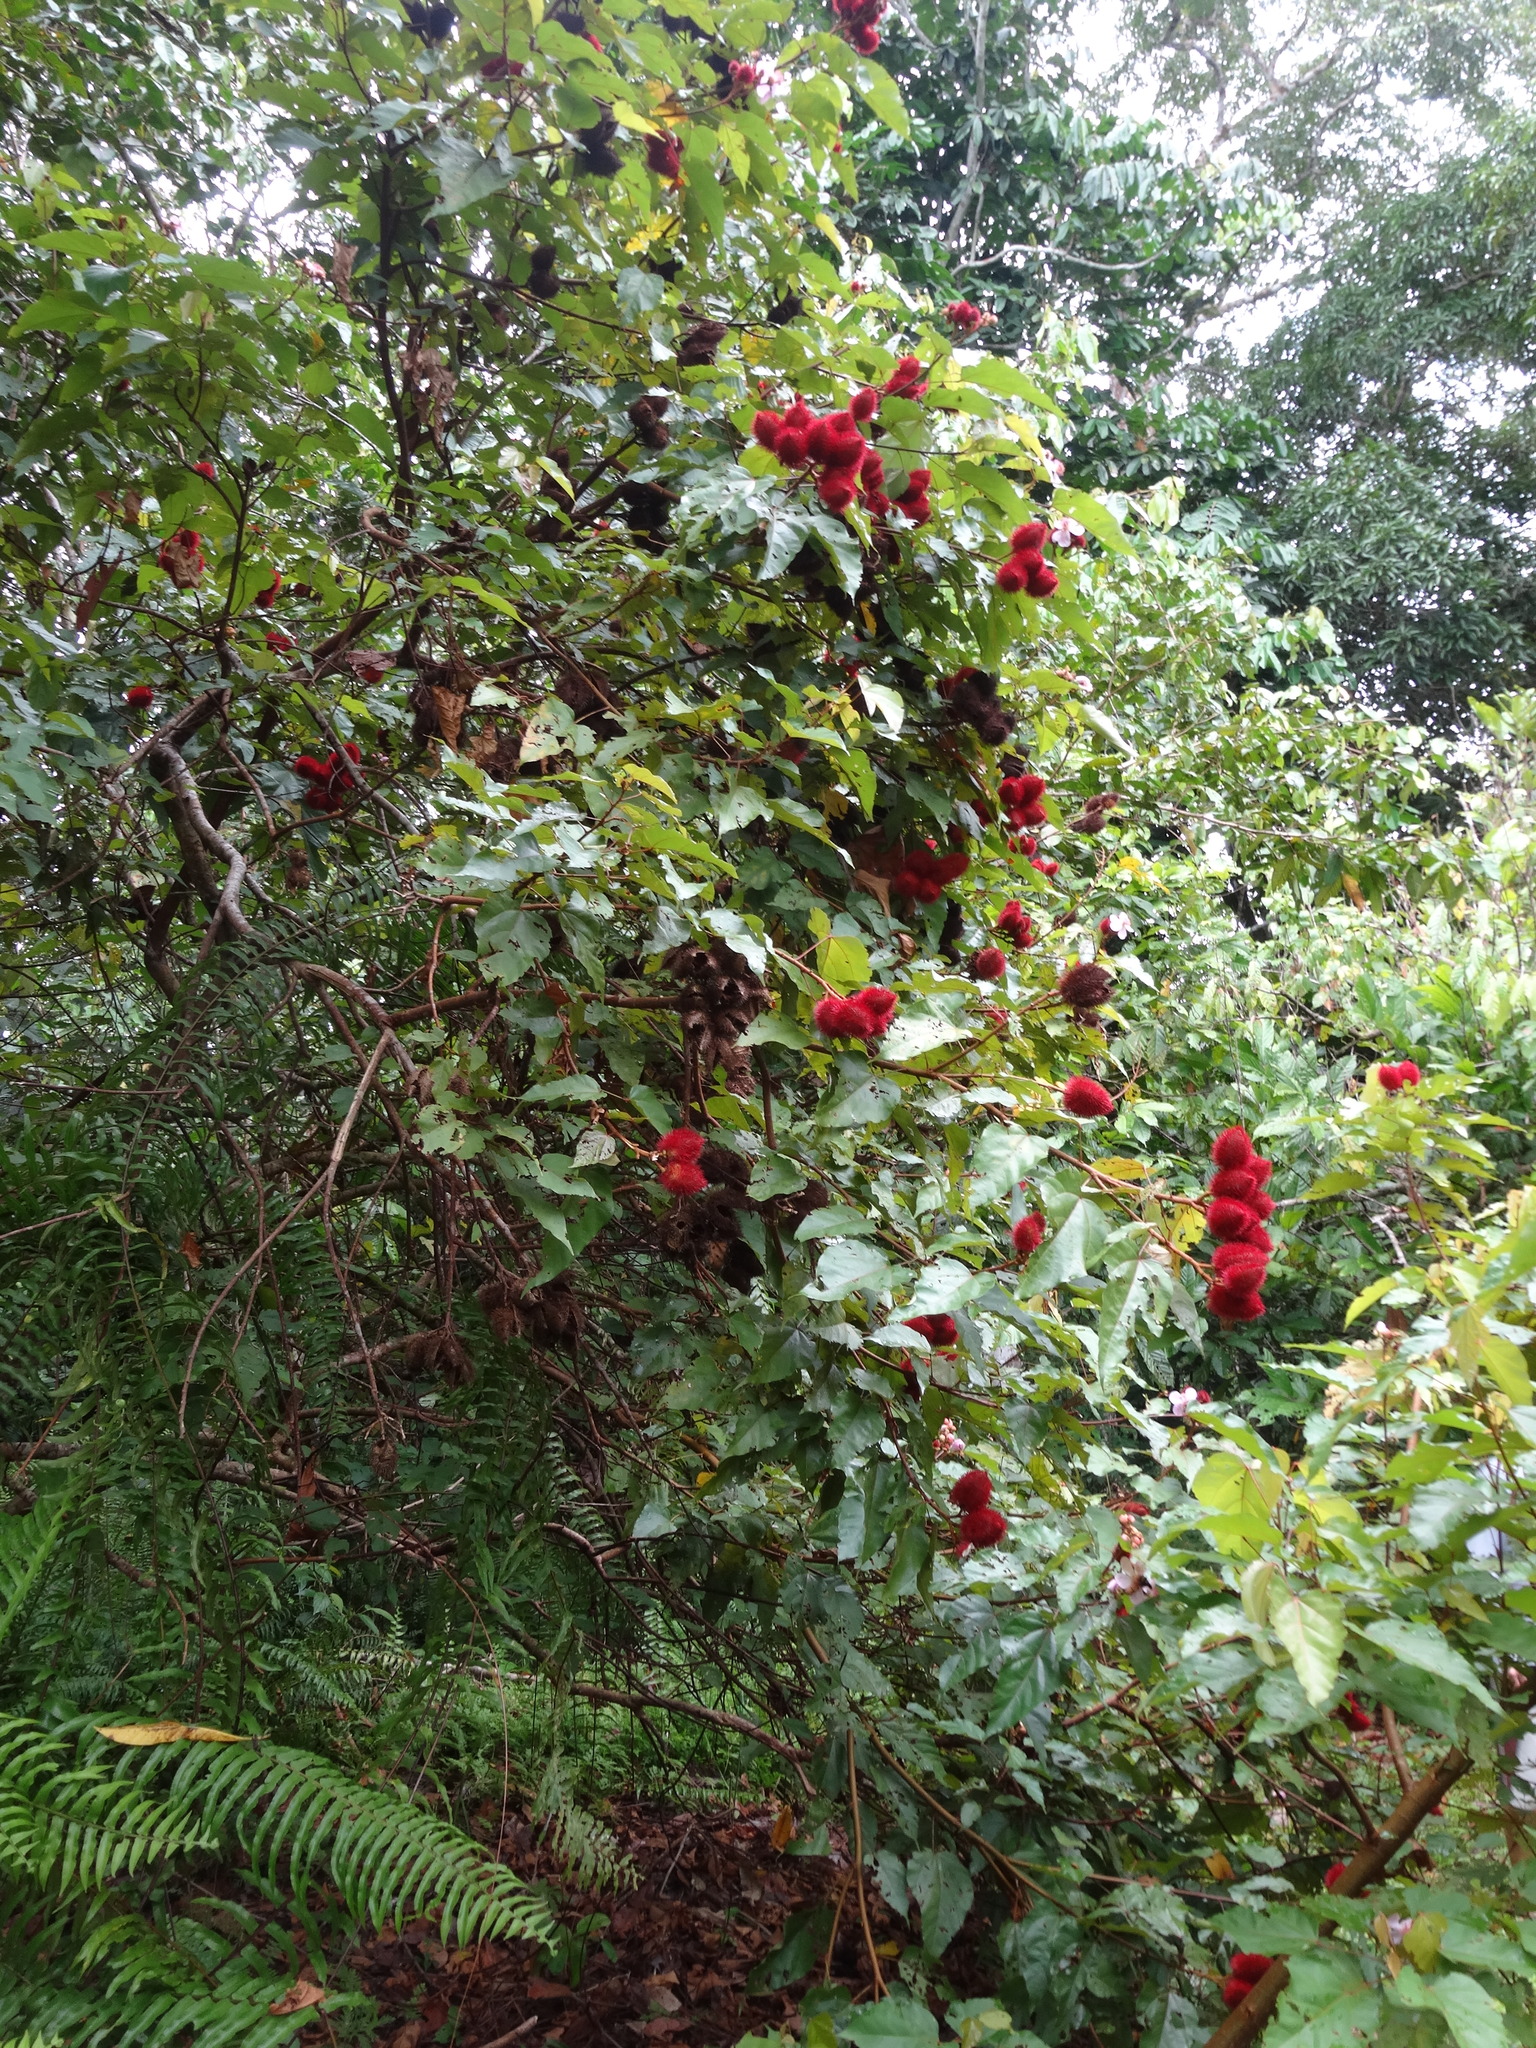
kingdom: Plantae
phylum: Tracheophyta
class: Magnoliopsida
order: Malvales
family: Bixaceae
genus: Bixa
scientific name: Bixa orellana
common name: Lipsticktree
